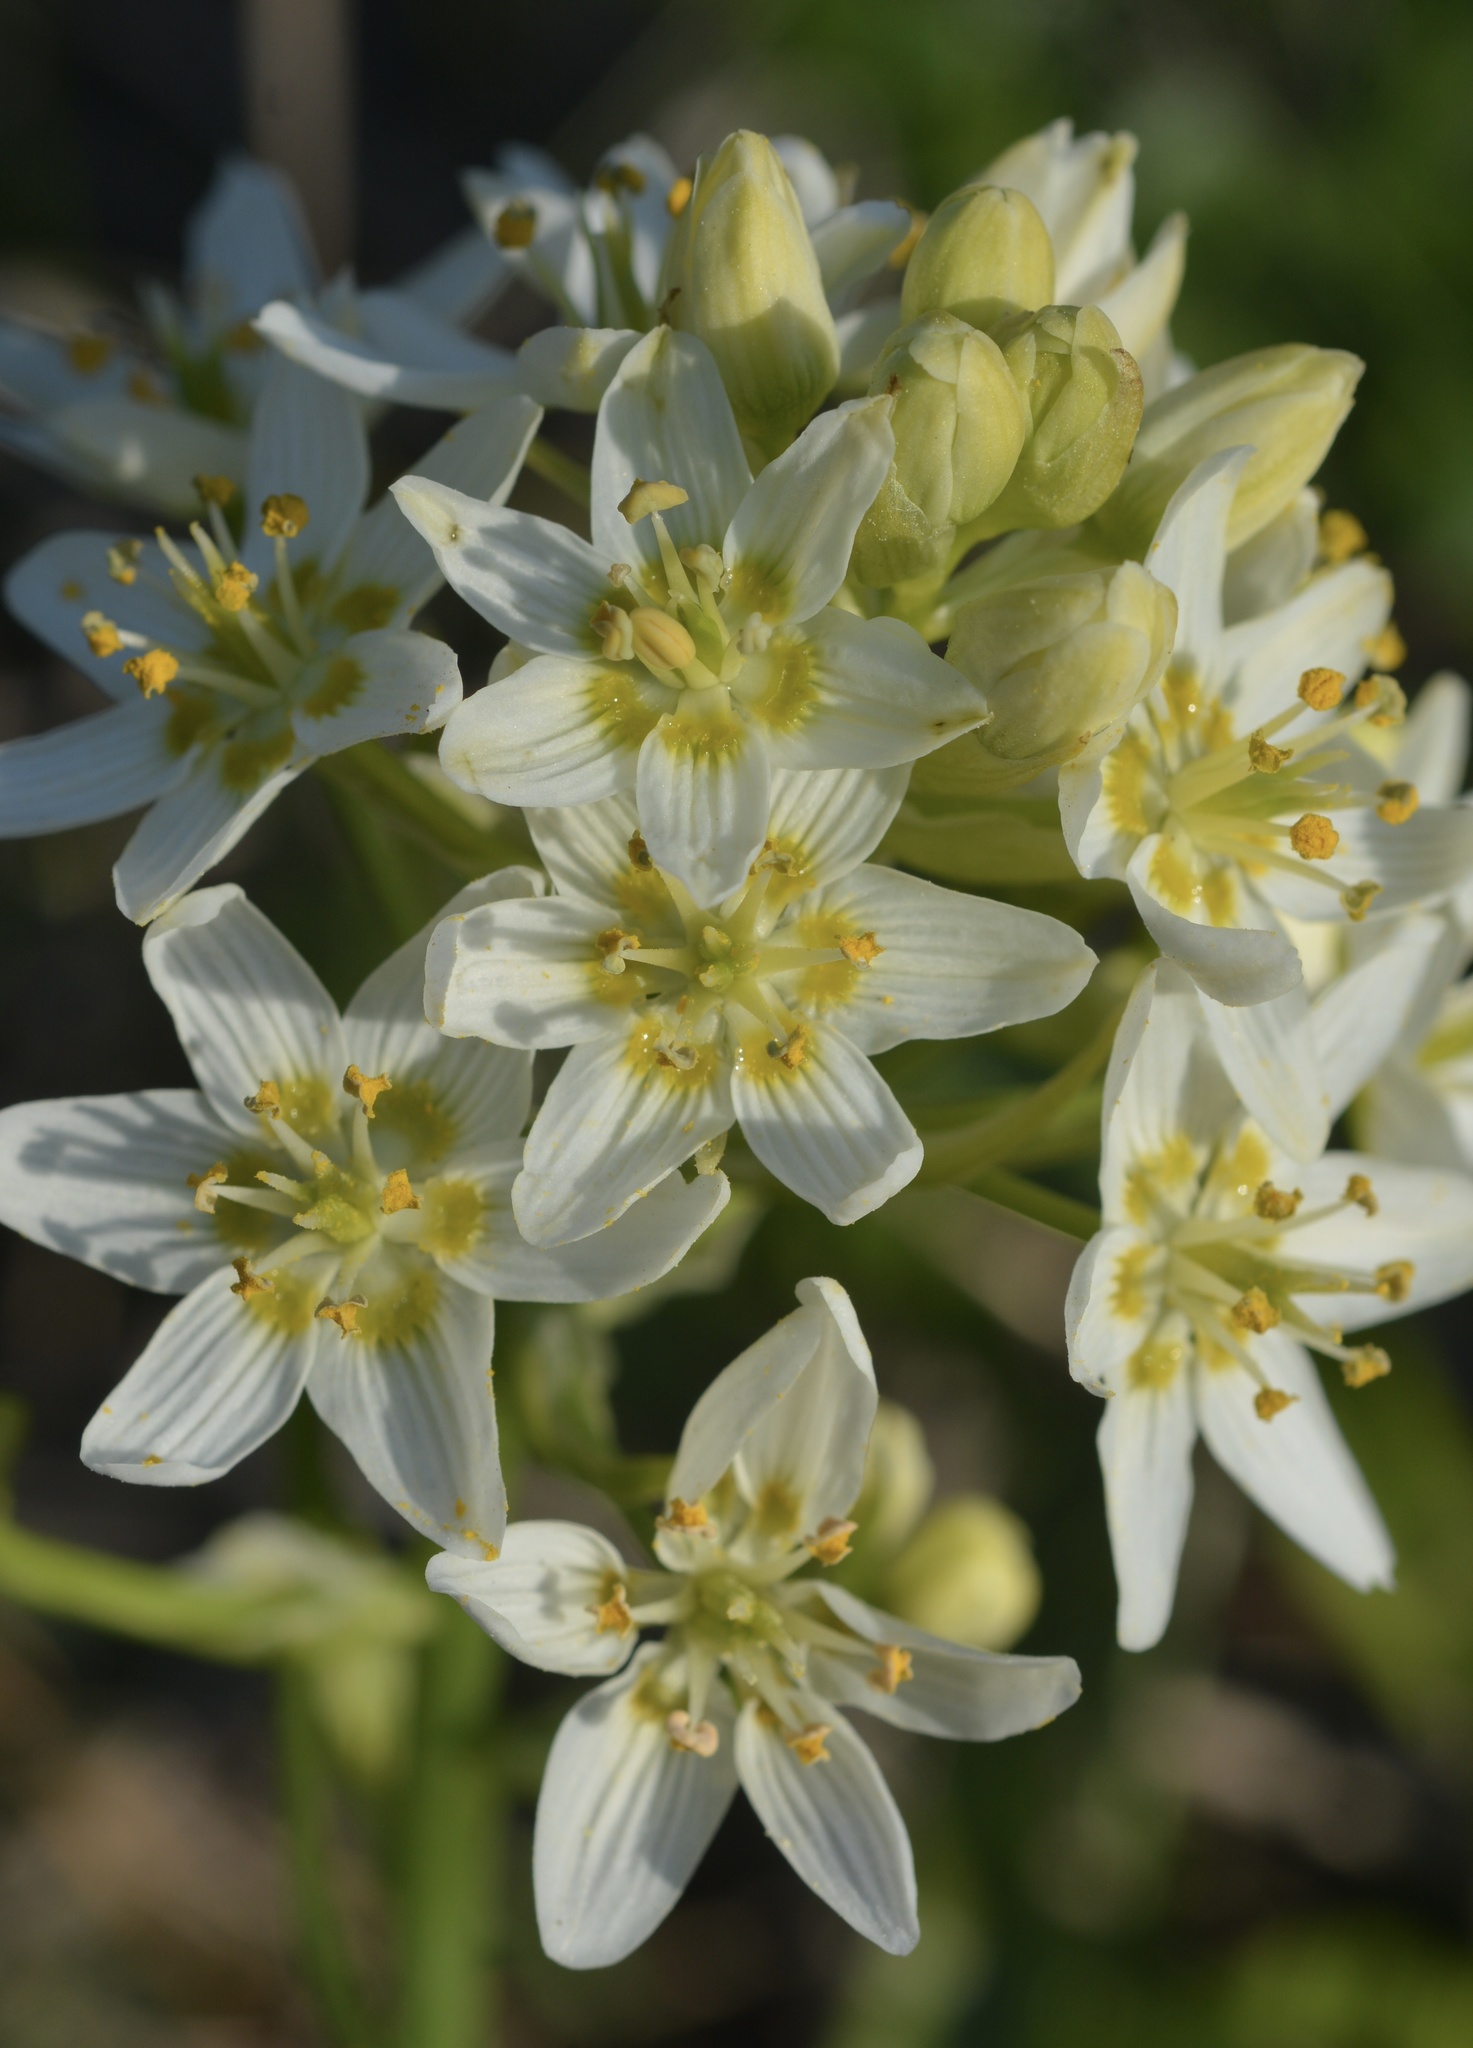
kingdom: Plantae
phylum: Tracheophyta
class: Liliopsida
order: Liliales
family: Melanthiaceae
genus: Toxicoscordion
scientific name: Toxicoscordion fremontii
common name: Fremont's death camas
